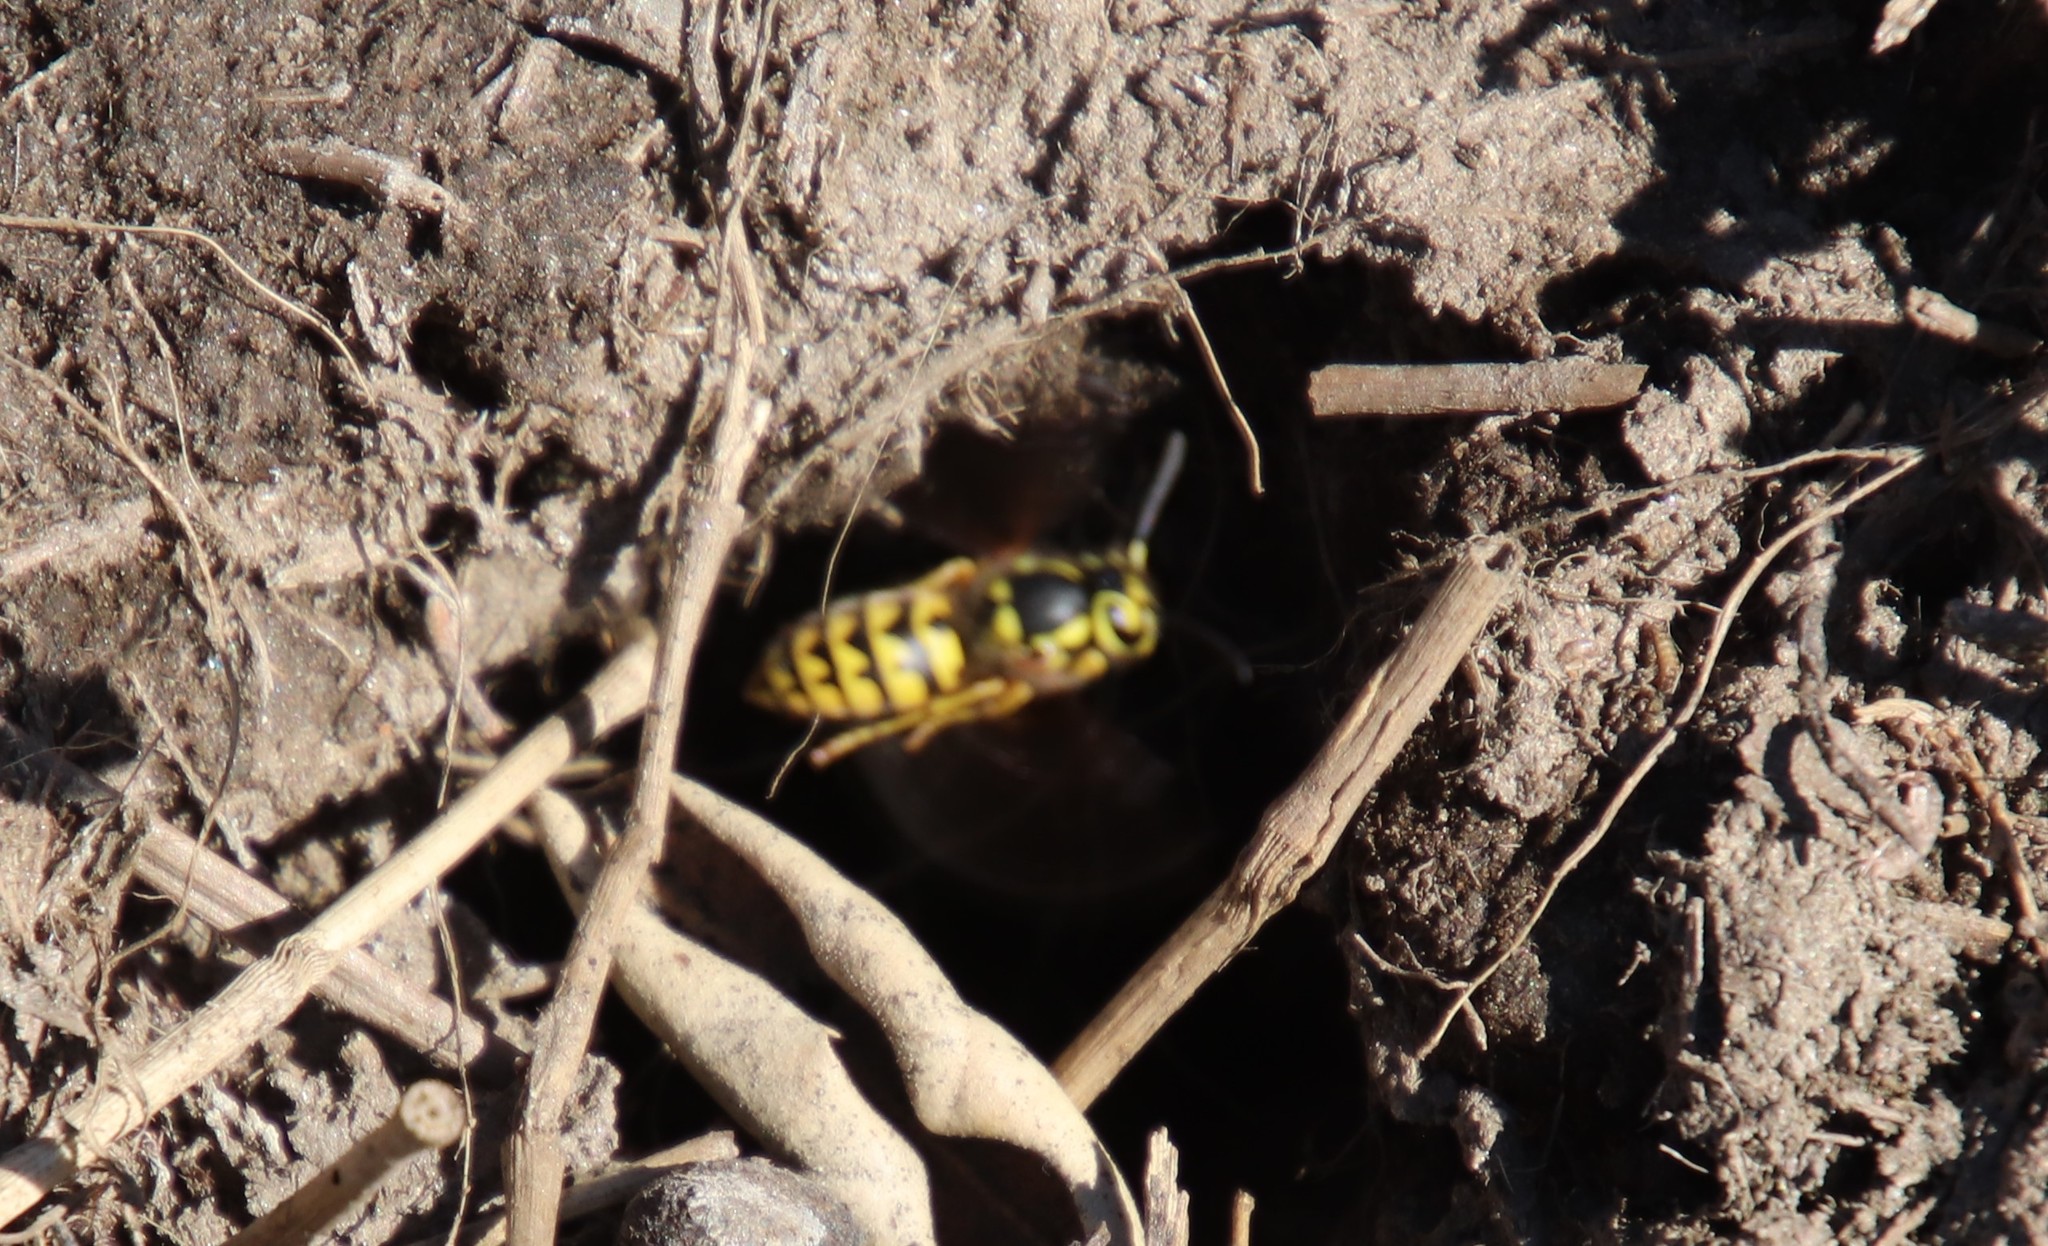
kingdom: Animalia
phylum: Arthropoda
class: Insecta
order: Hymenoptera
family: Vespidae
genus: Vespula
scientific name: Vespula pensylvanica
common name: Western yellowjacket
